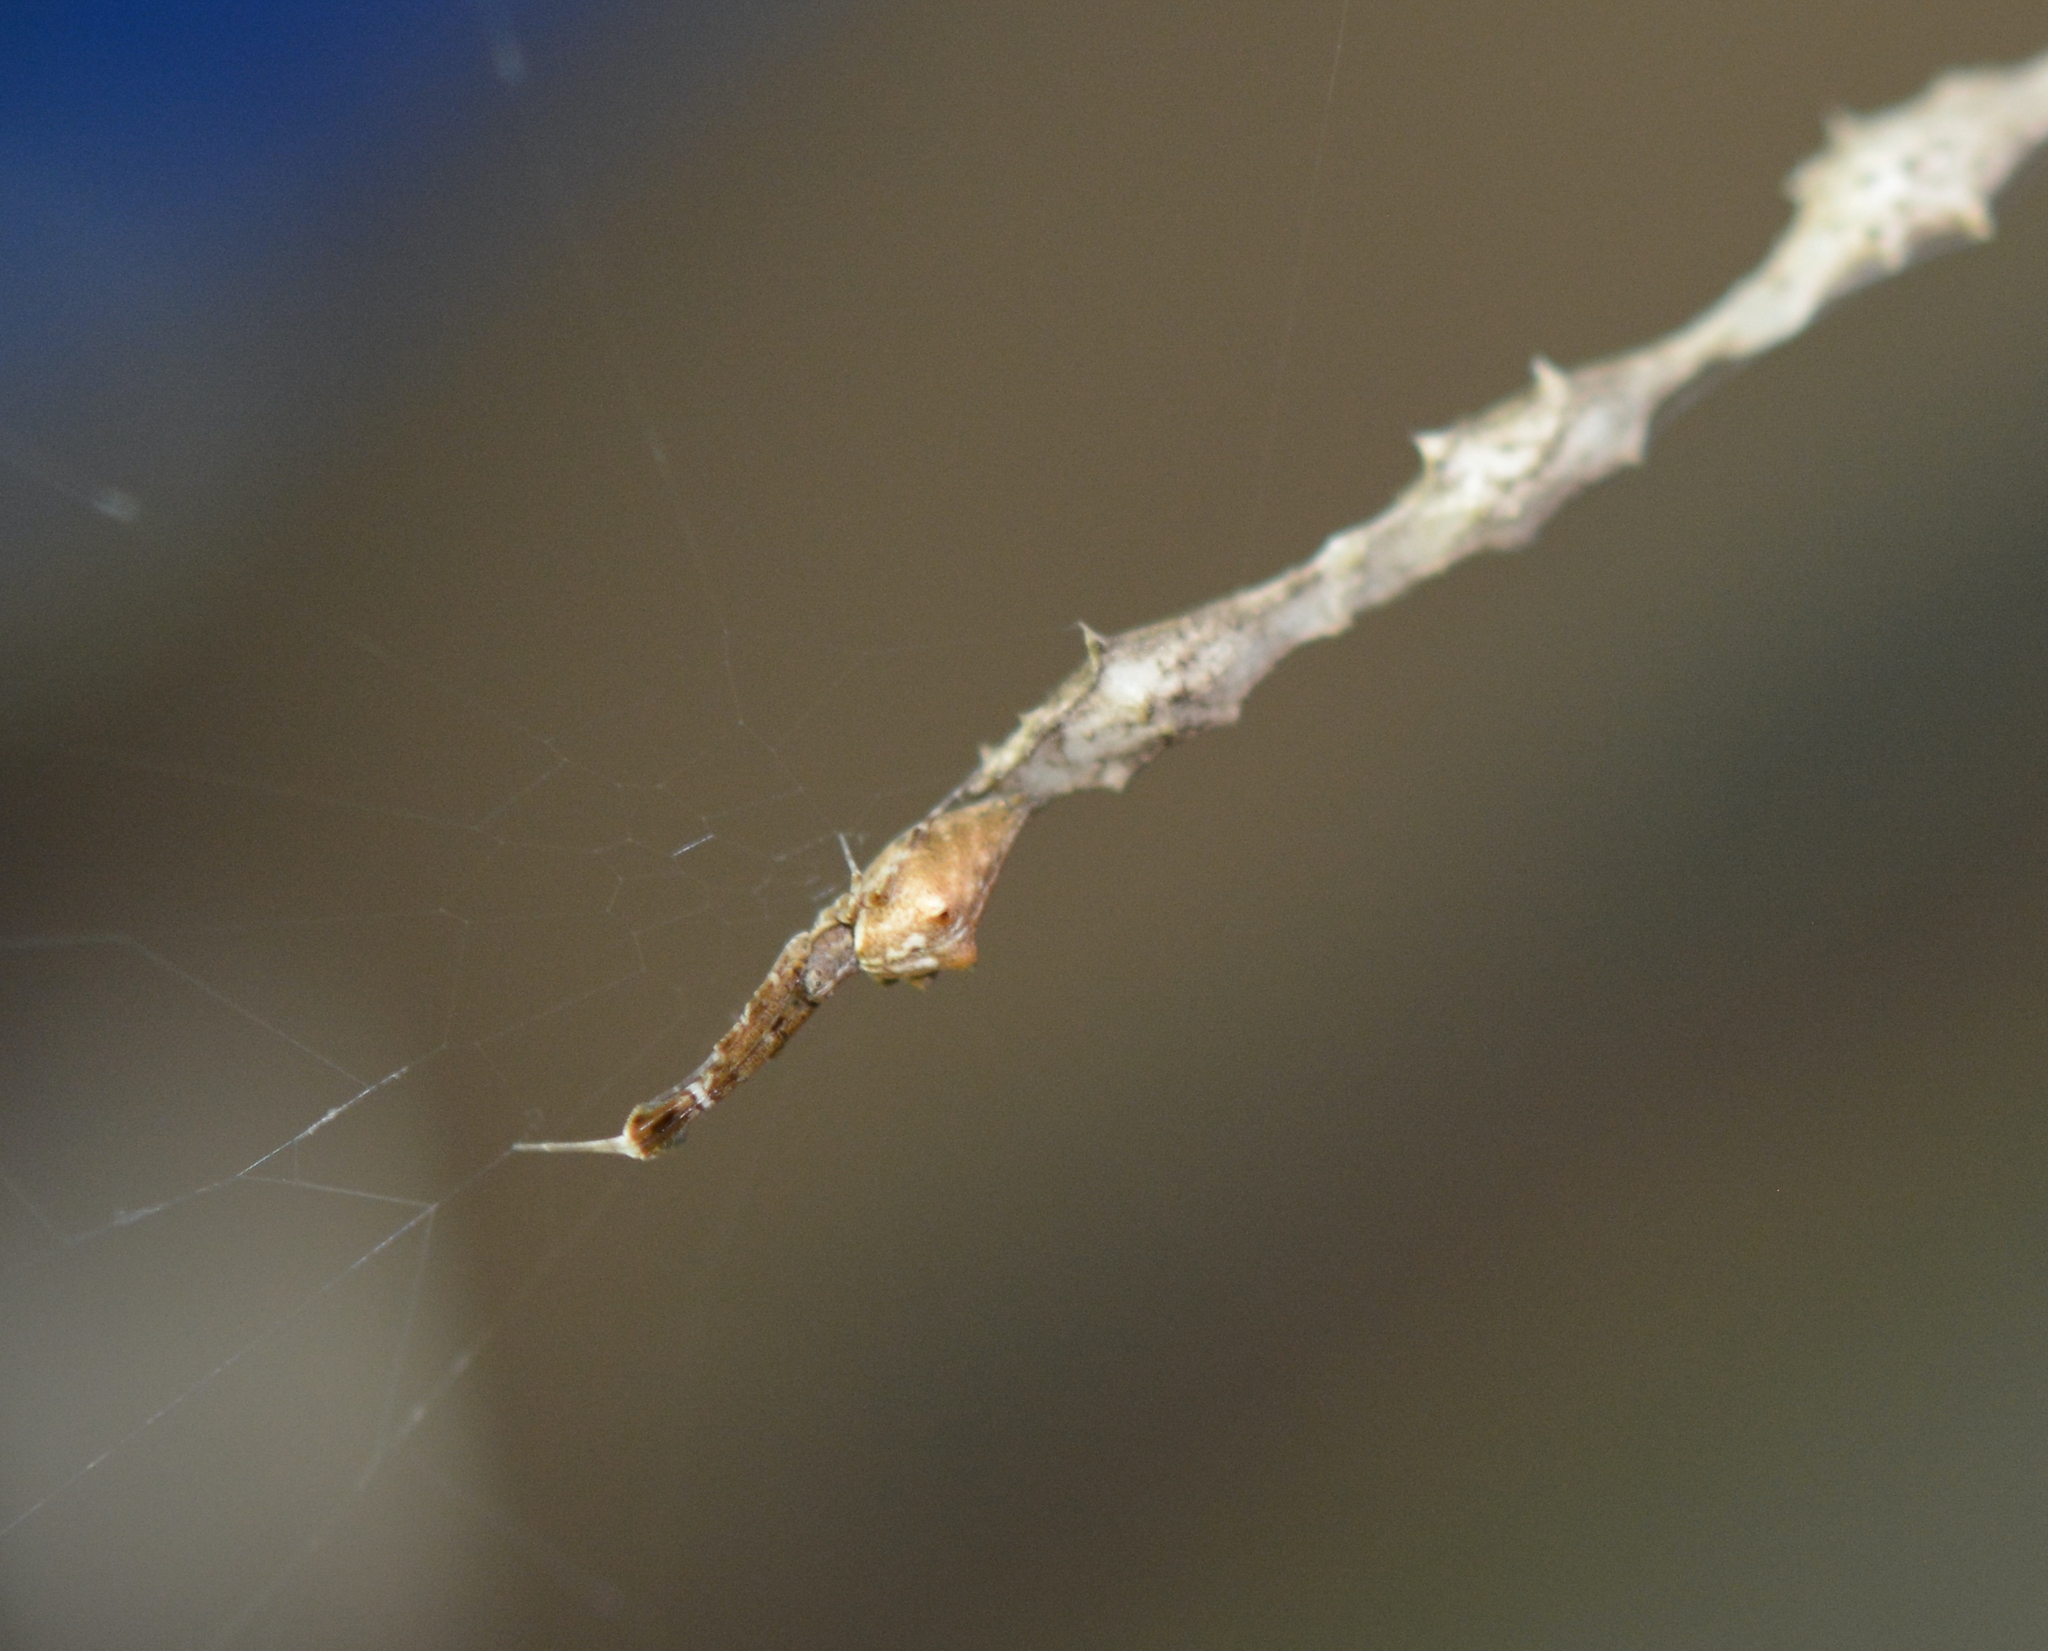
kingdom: Animalia
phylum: Arthropoda
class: Arachnida
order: Araneae
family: Uloboridae
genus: Uloborus
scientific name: Uloborus glomosus
